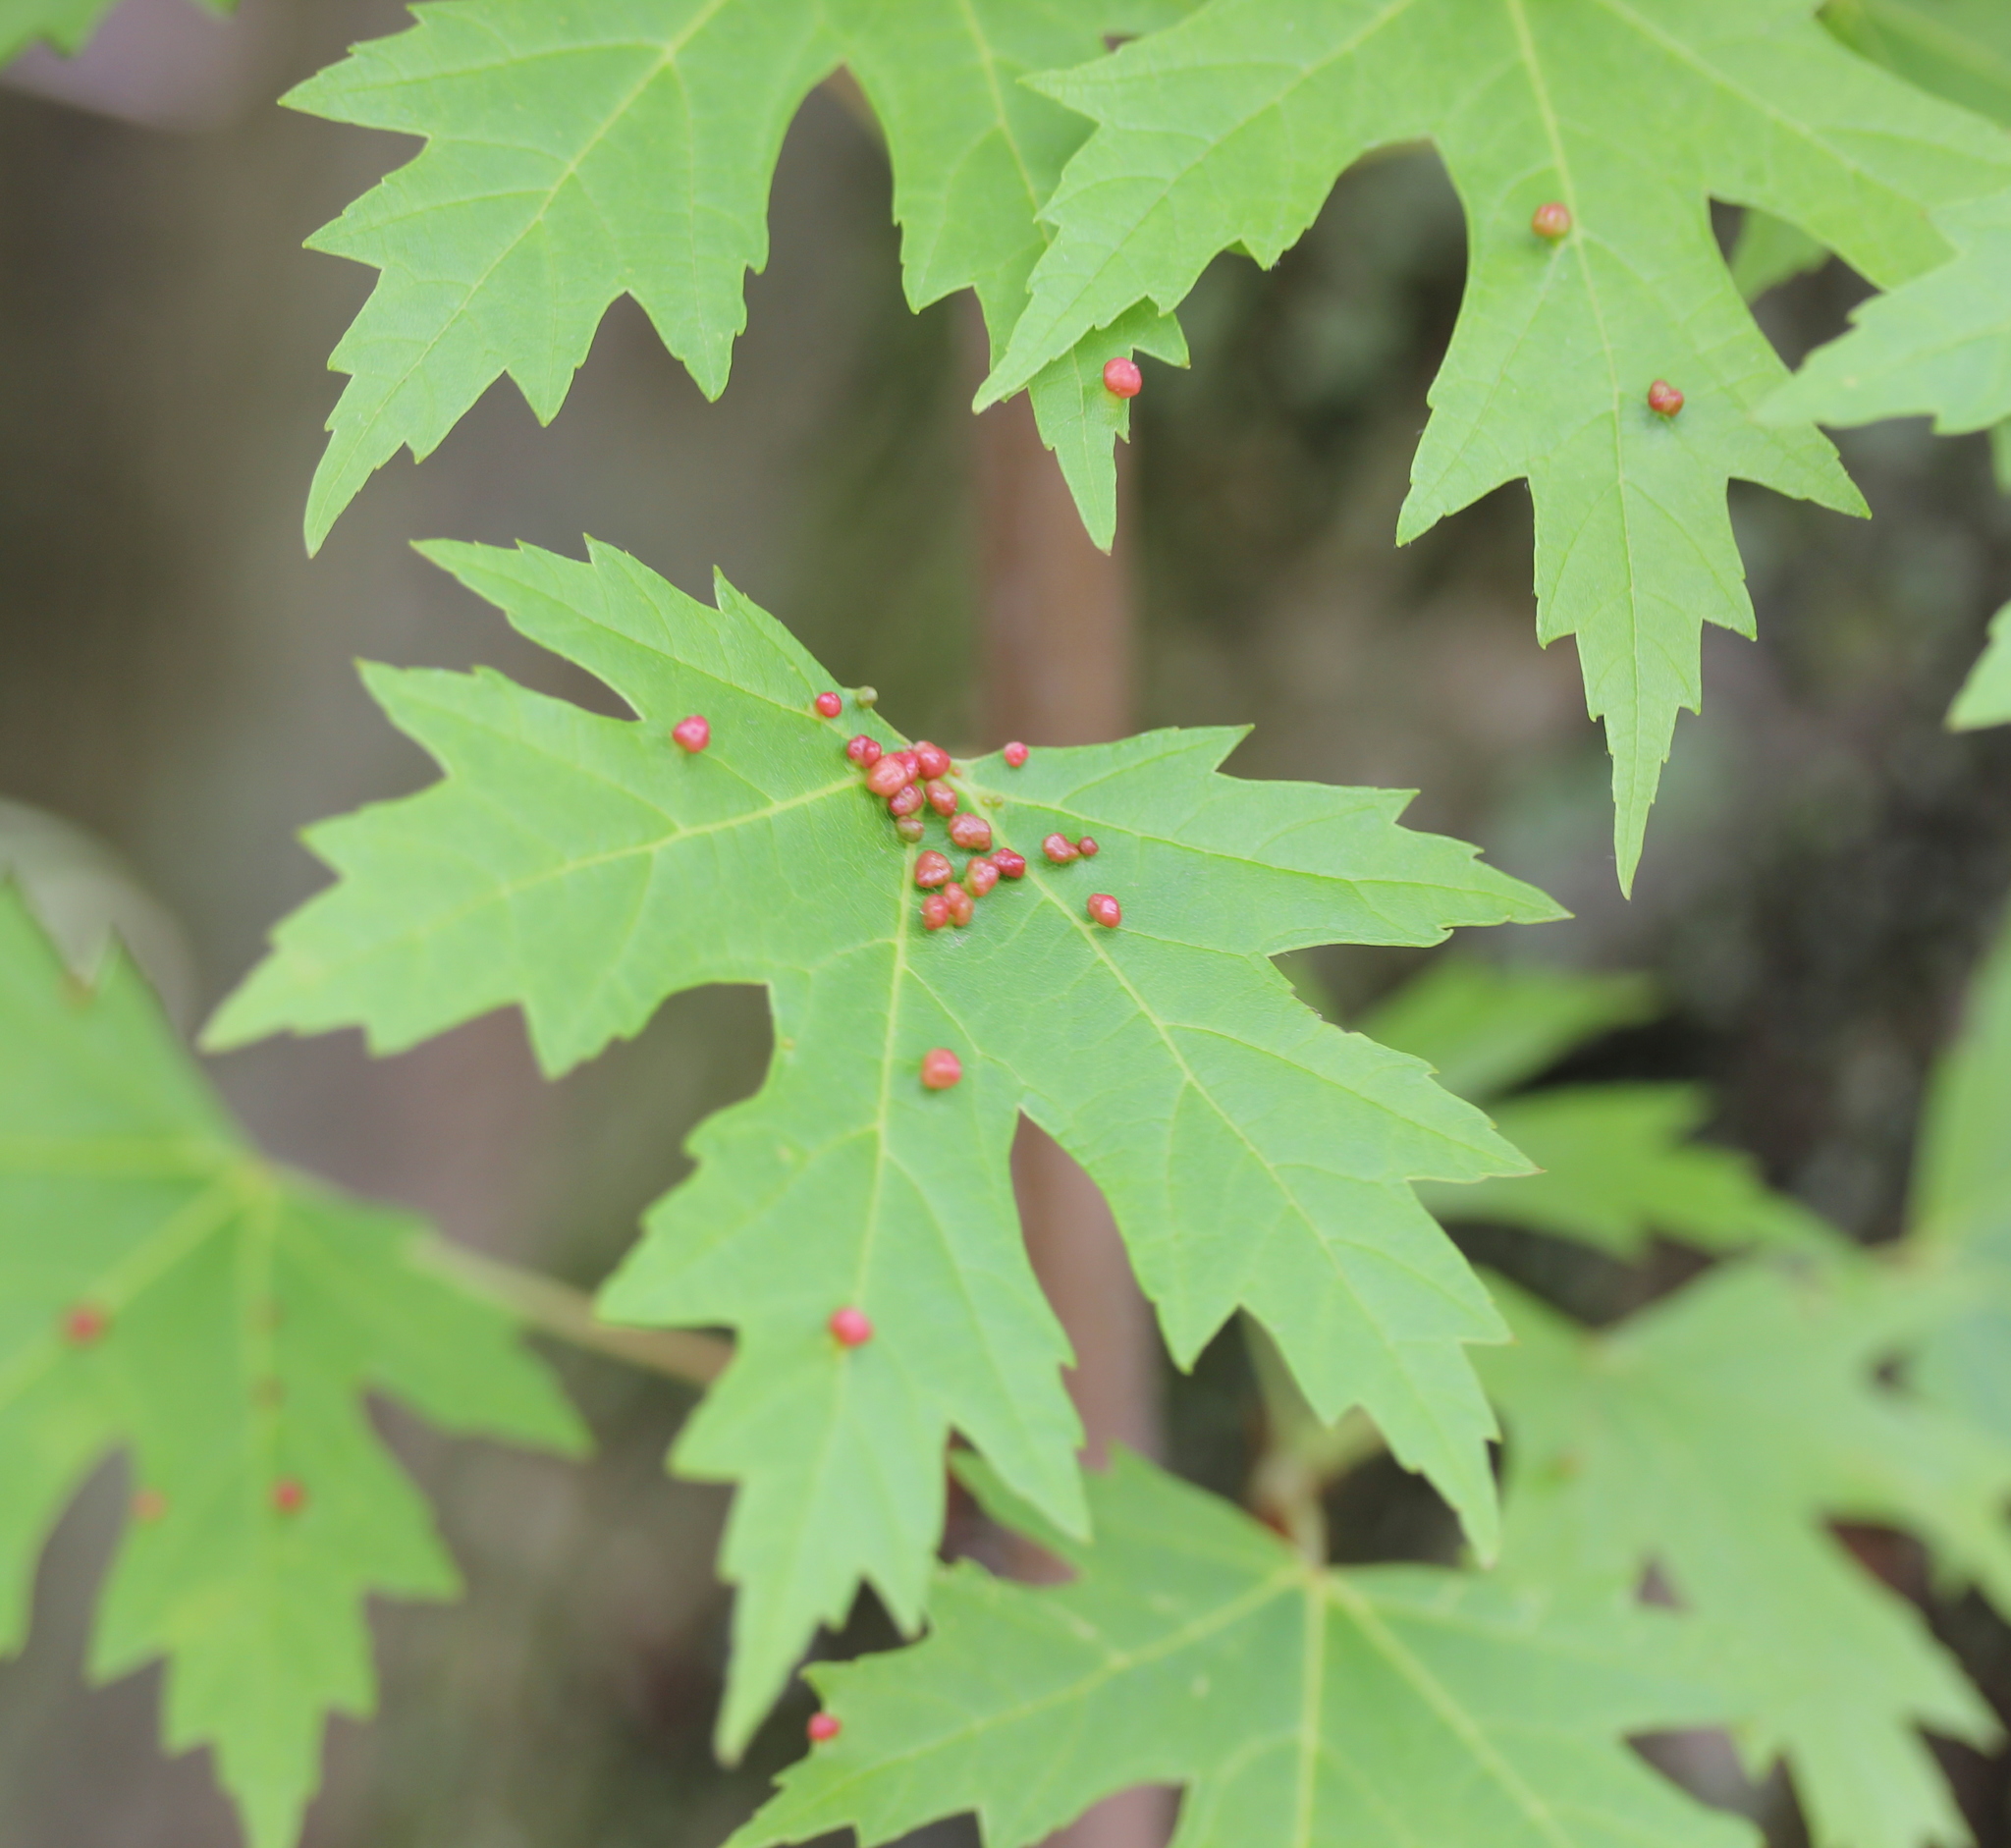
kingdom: Plantae
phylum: Tracheophyta
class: Magnoliopsida
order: Sapindales
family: Sapindaceae
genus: Acer
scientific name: Acer saccharinum
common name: Silver maple
